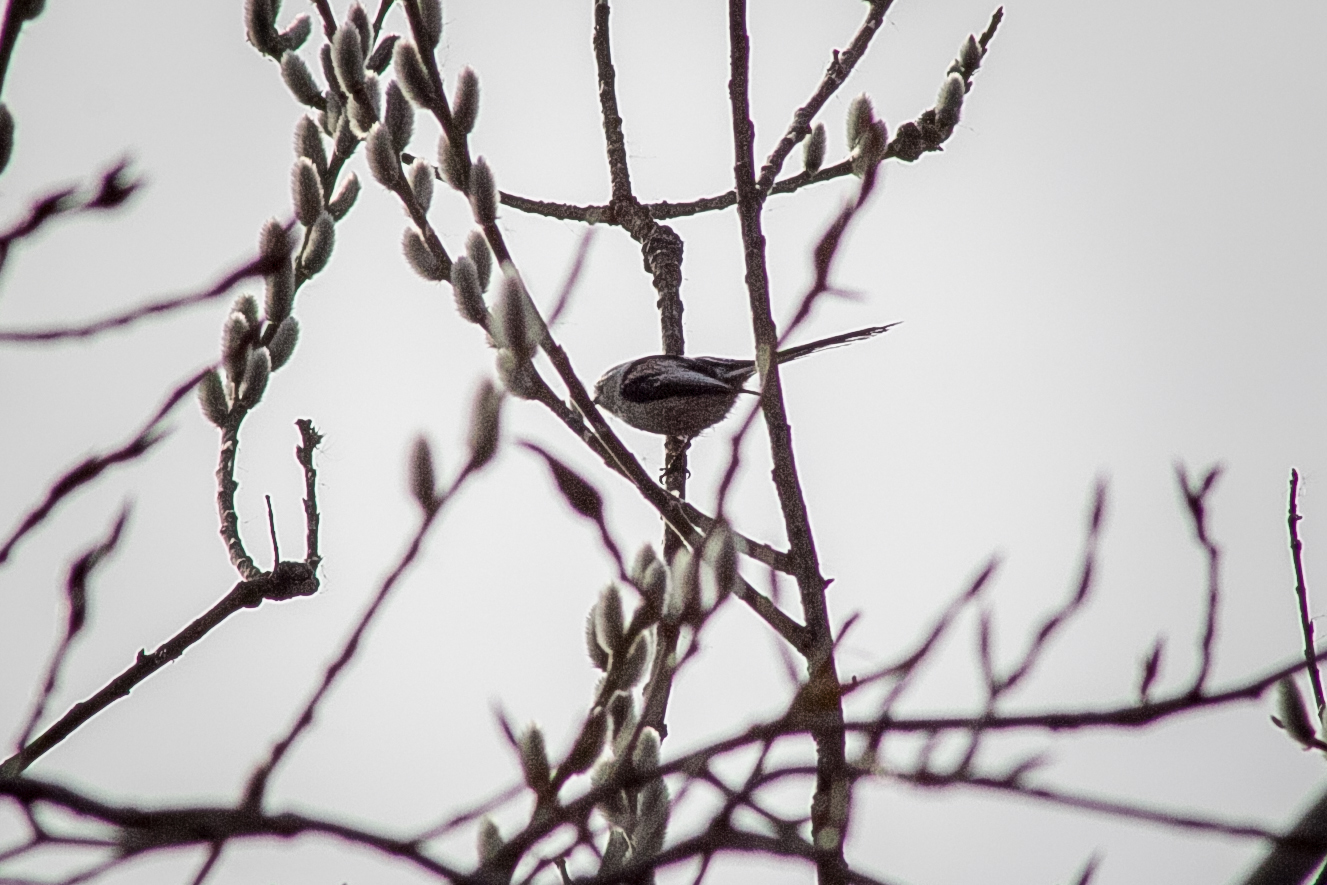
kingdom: Animalia
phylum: Chordata
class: Aves
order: Passeriformes
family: Aegithalidae
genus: Aegithalos
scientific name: Aegithalos caudatus
